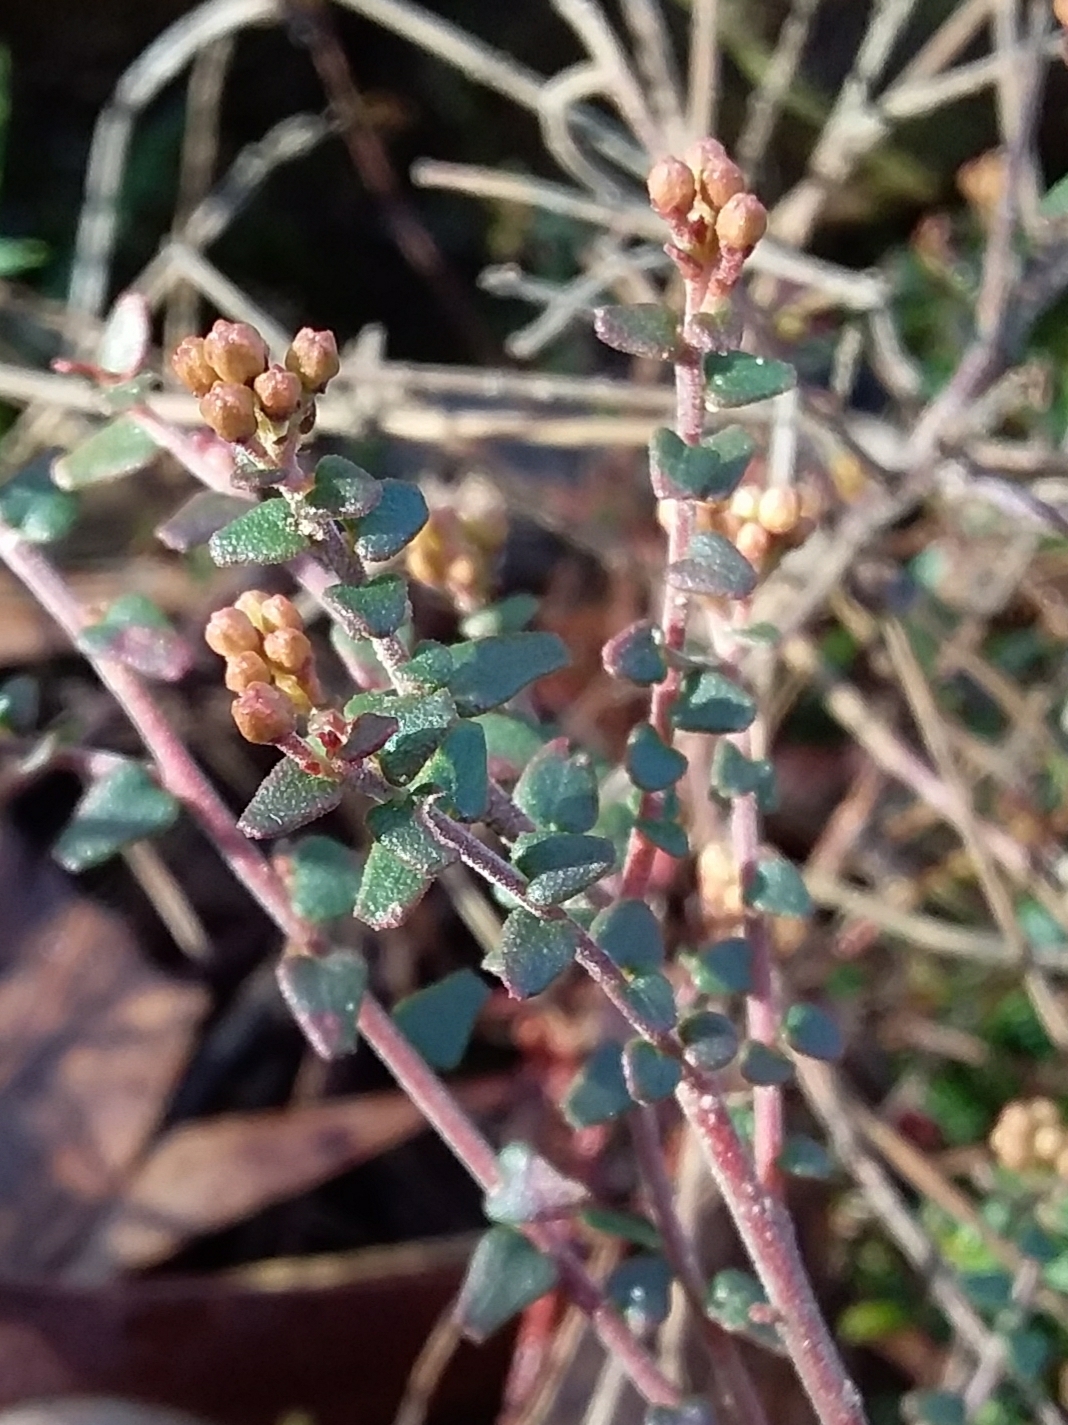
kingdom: Plantae
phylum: Tracheophyta
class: Magnoliopsida
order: Sapindales
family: Rutaceae
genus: Leionema
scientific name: Leionema hillebrandii
